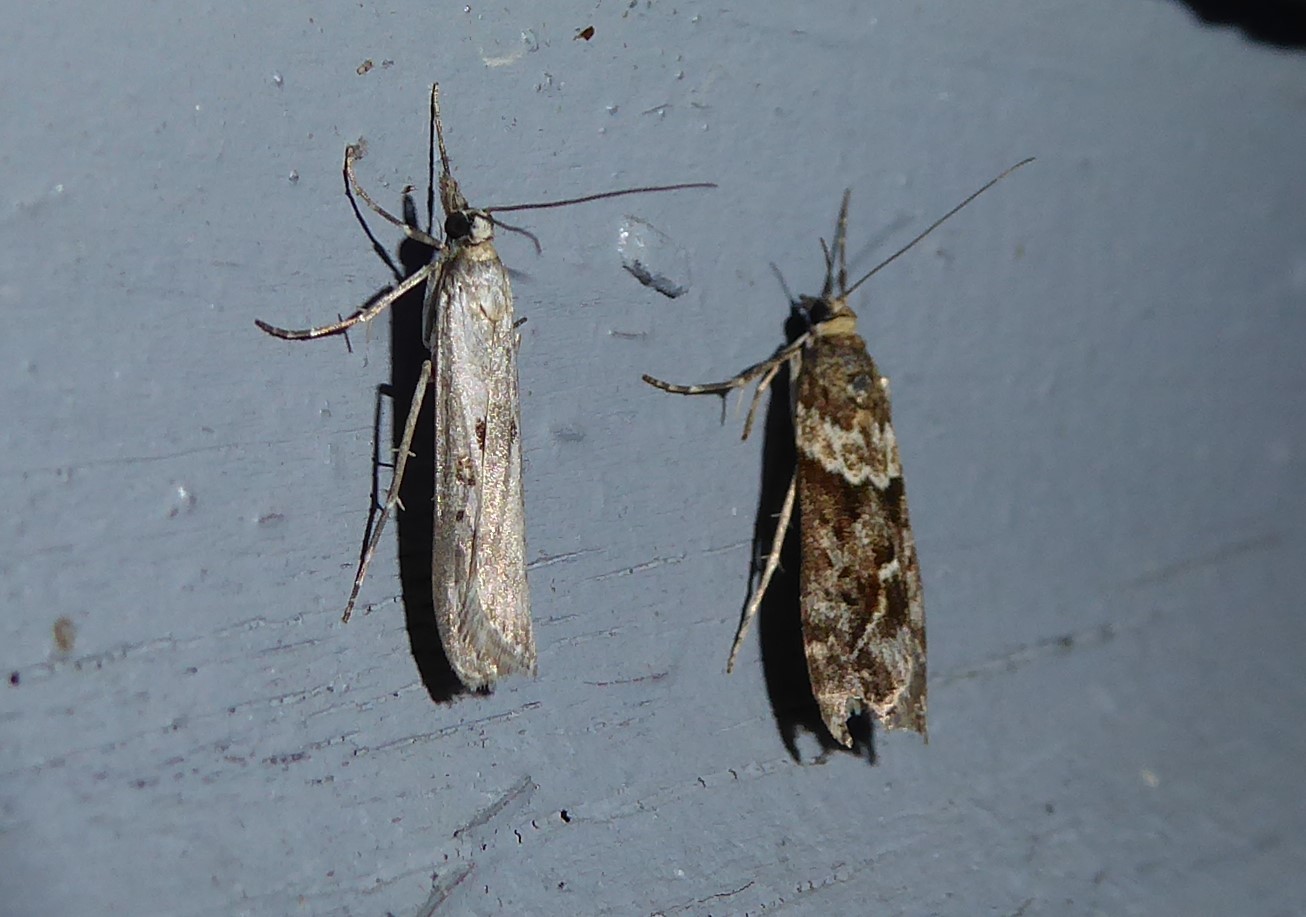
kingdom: Animalia
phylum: Arthropoda
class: Insecta
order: Lepidoptera
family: Crambidae
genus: Eudonia
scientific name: Eudonia leptalea
